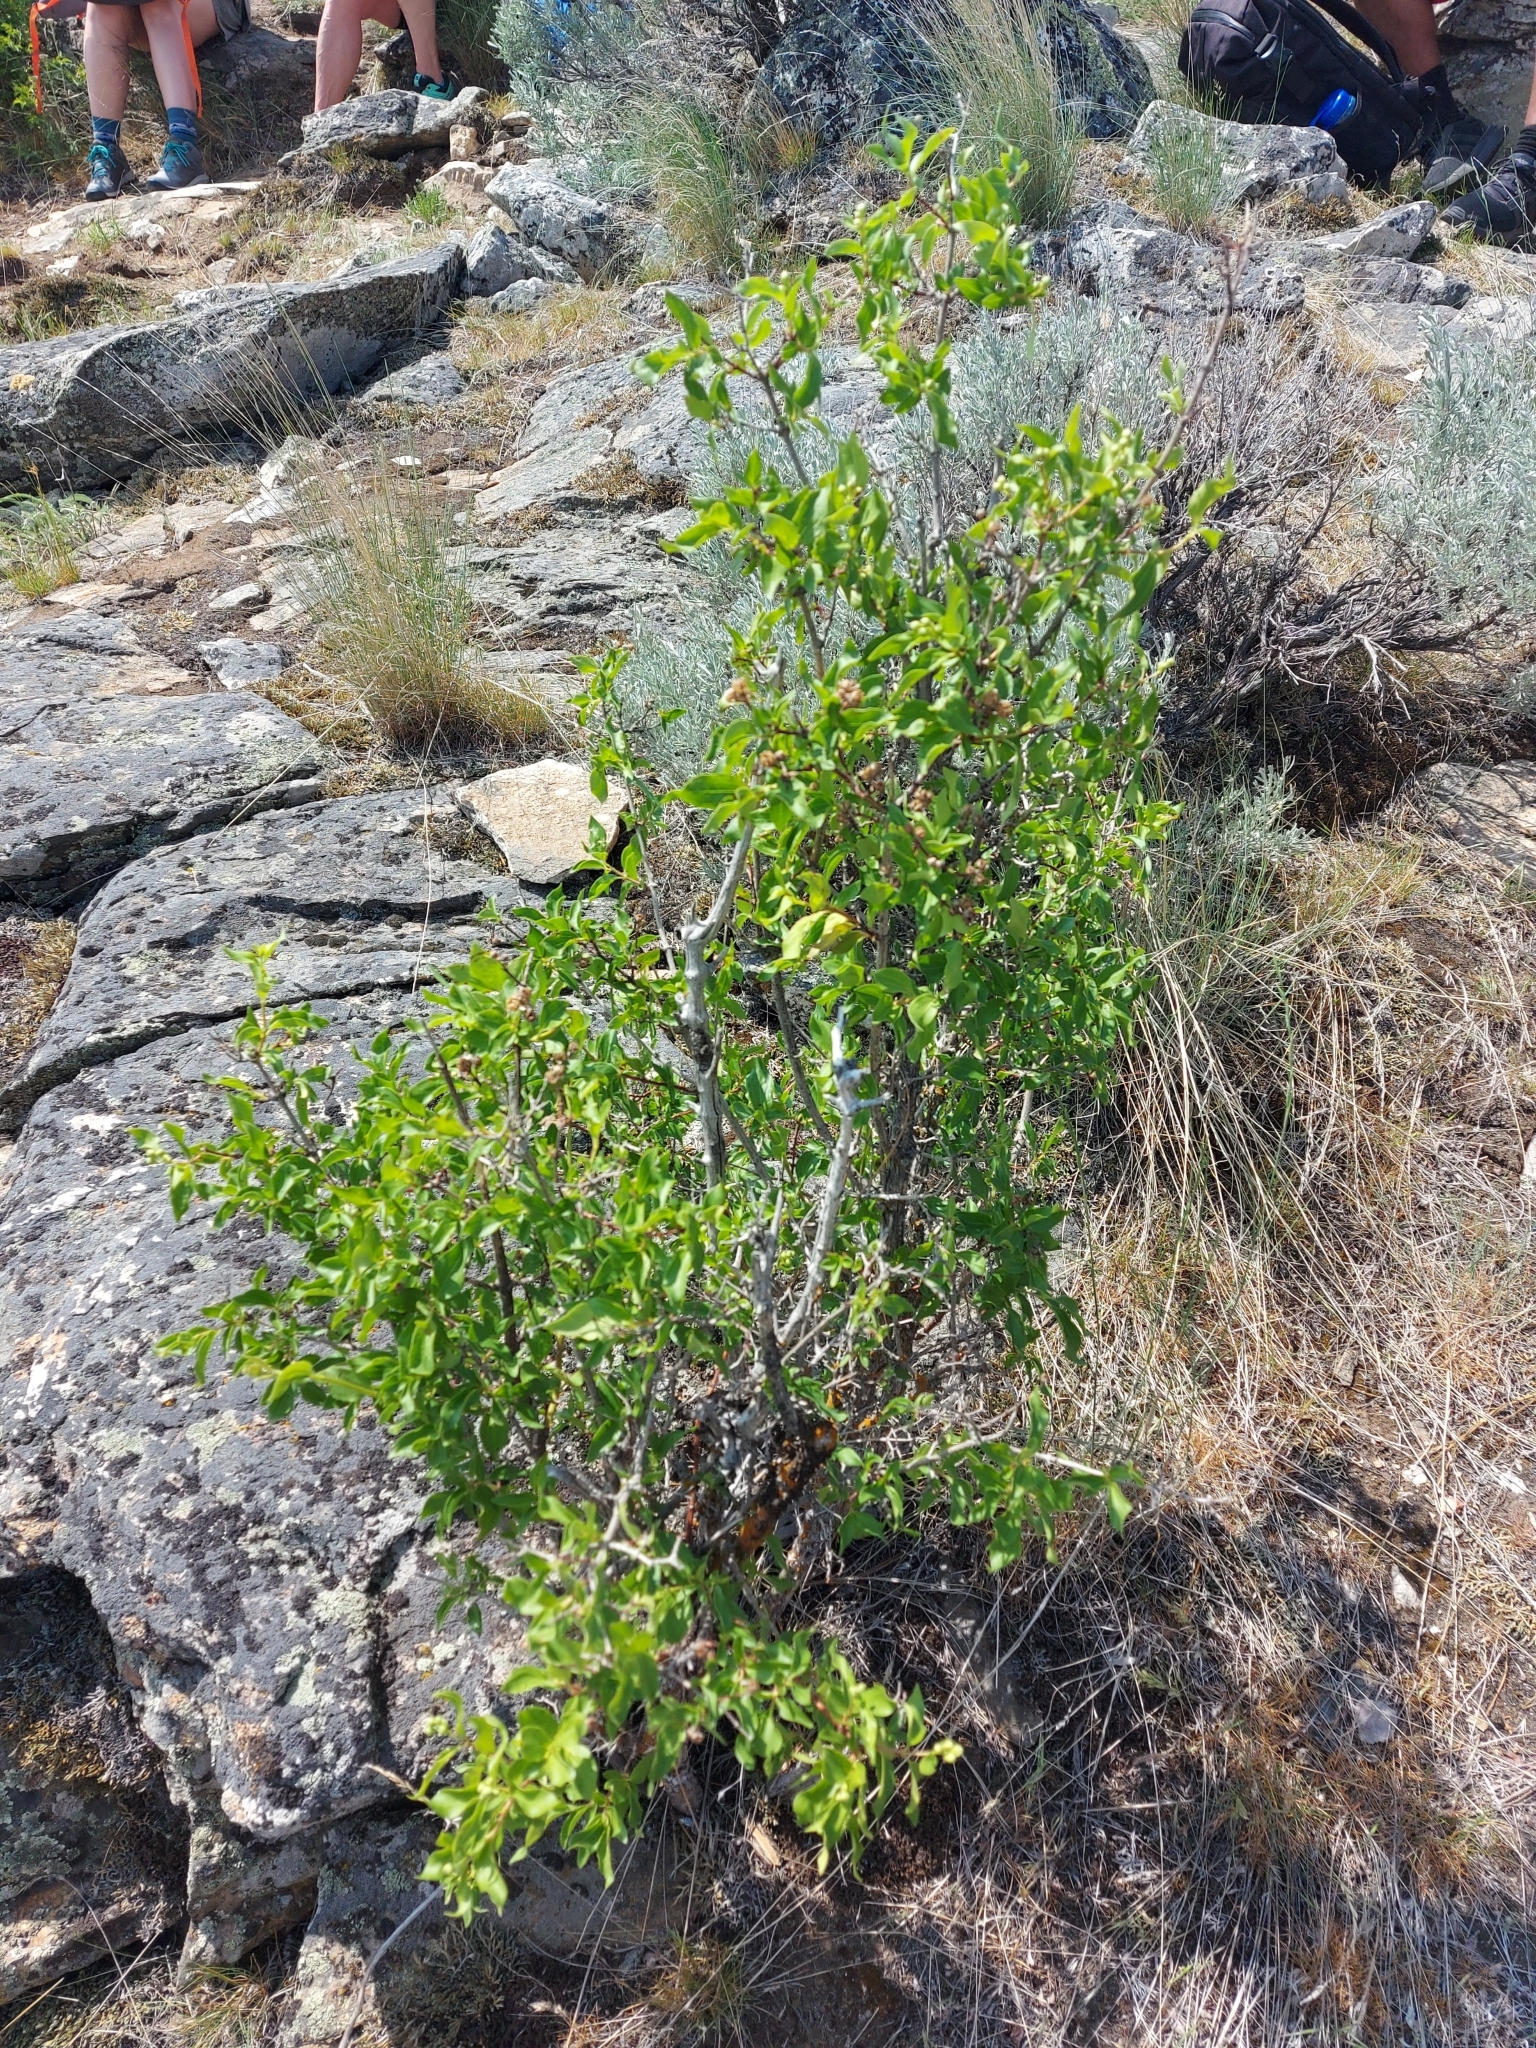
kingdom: Plantae
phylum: Tracheophyta
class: Magnoliopsida
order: Cornales
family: Hydrangeaceae
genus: Philadelphus
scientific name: Philadelphus lewisii
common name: Lewis's mock orange
